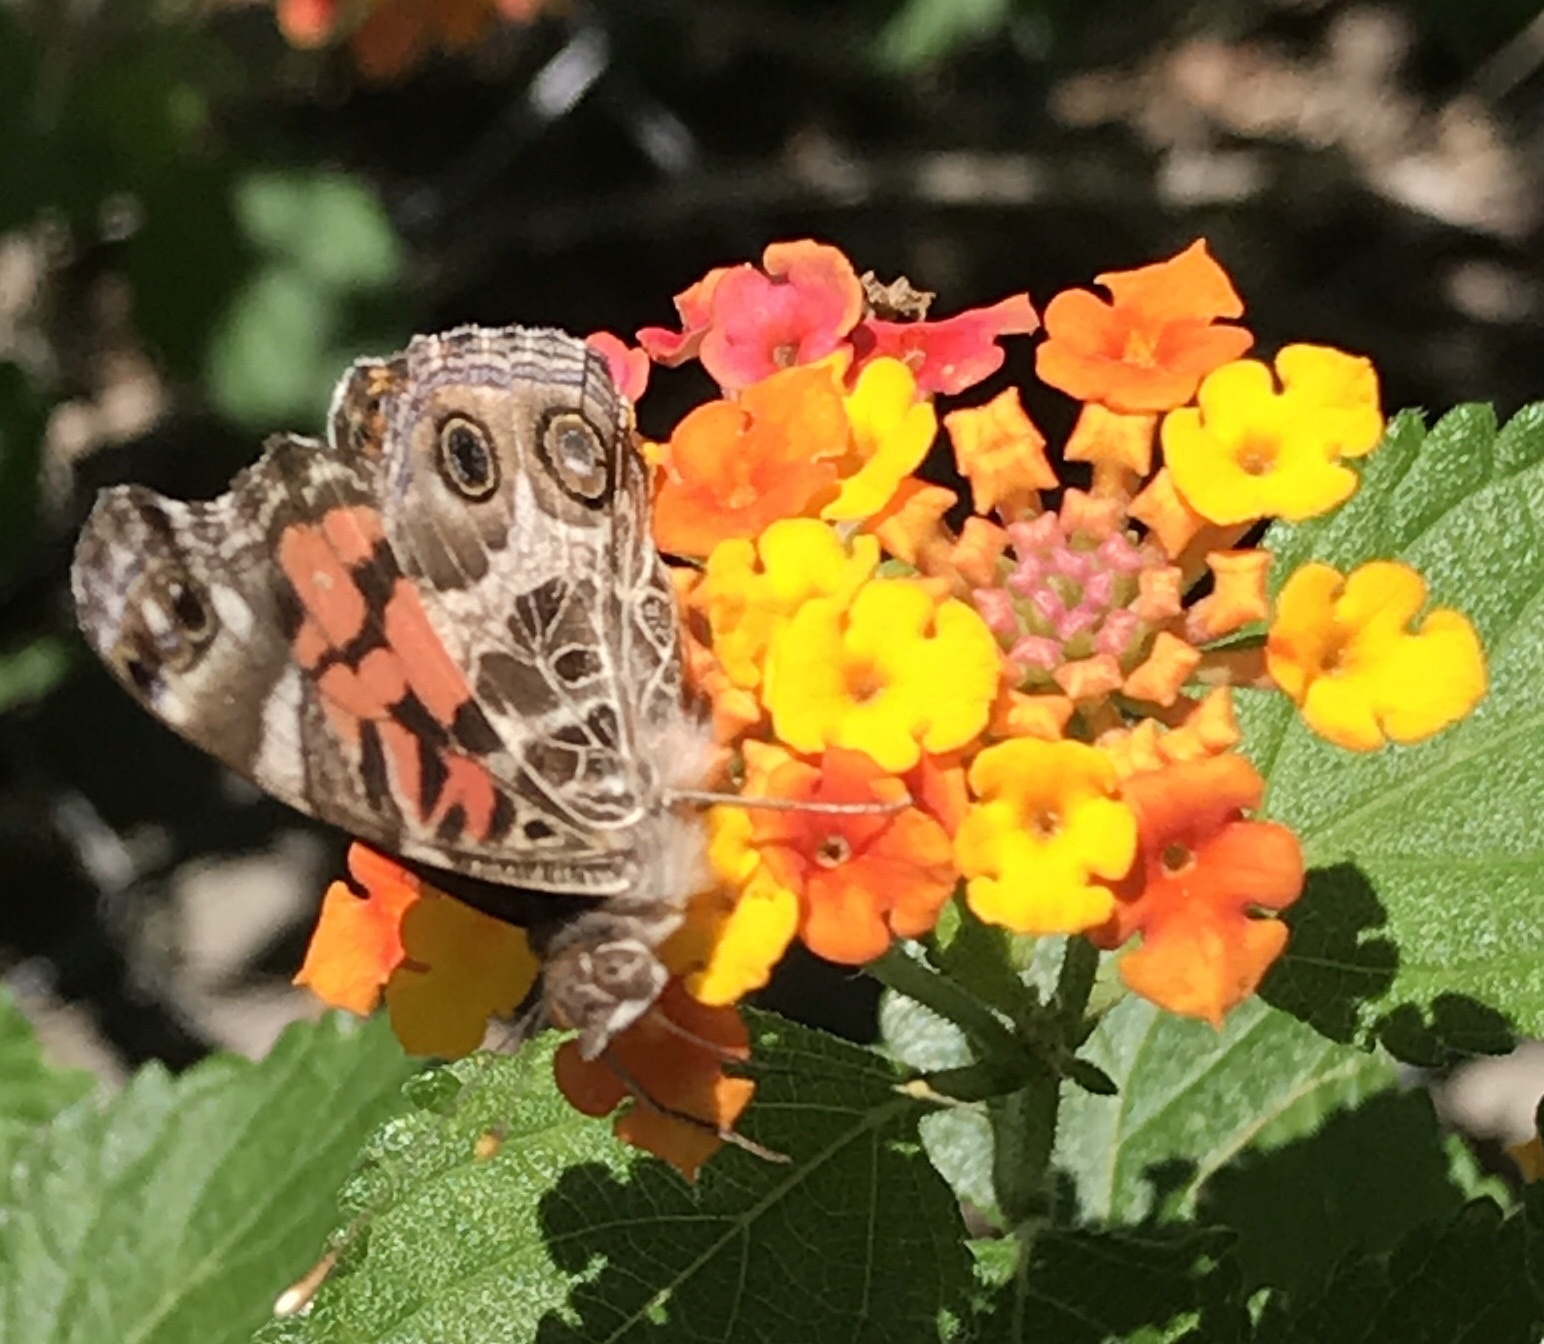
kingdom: Animalia
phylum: Arthropoda
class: Insecta
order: Lepidoptera
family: Nymphalidae
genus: Vanessa
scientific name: Vanessa virginiensis
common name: American lady
